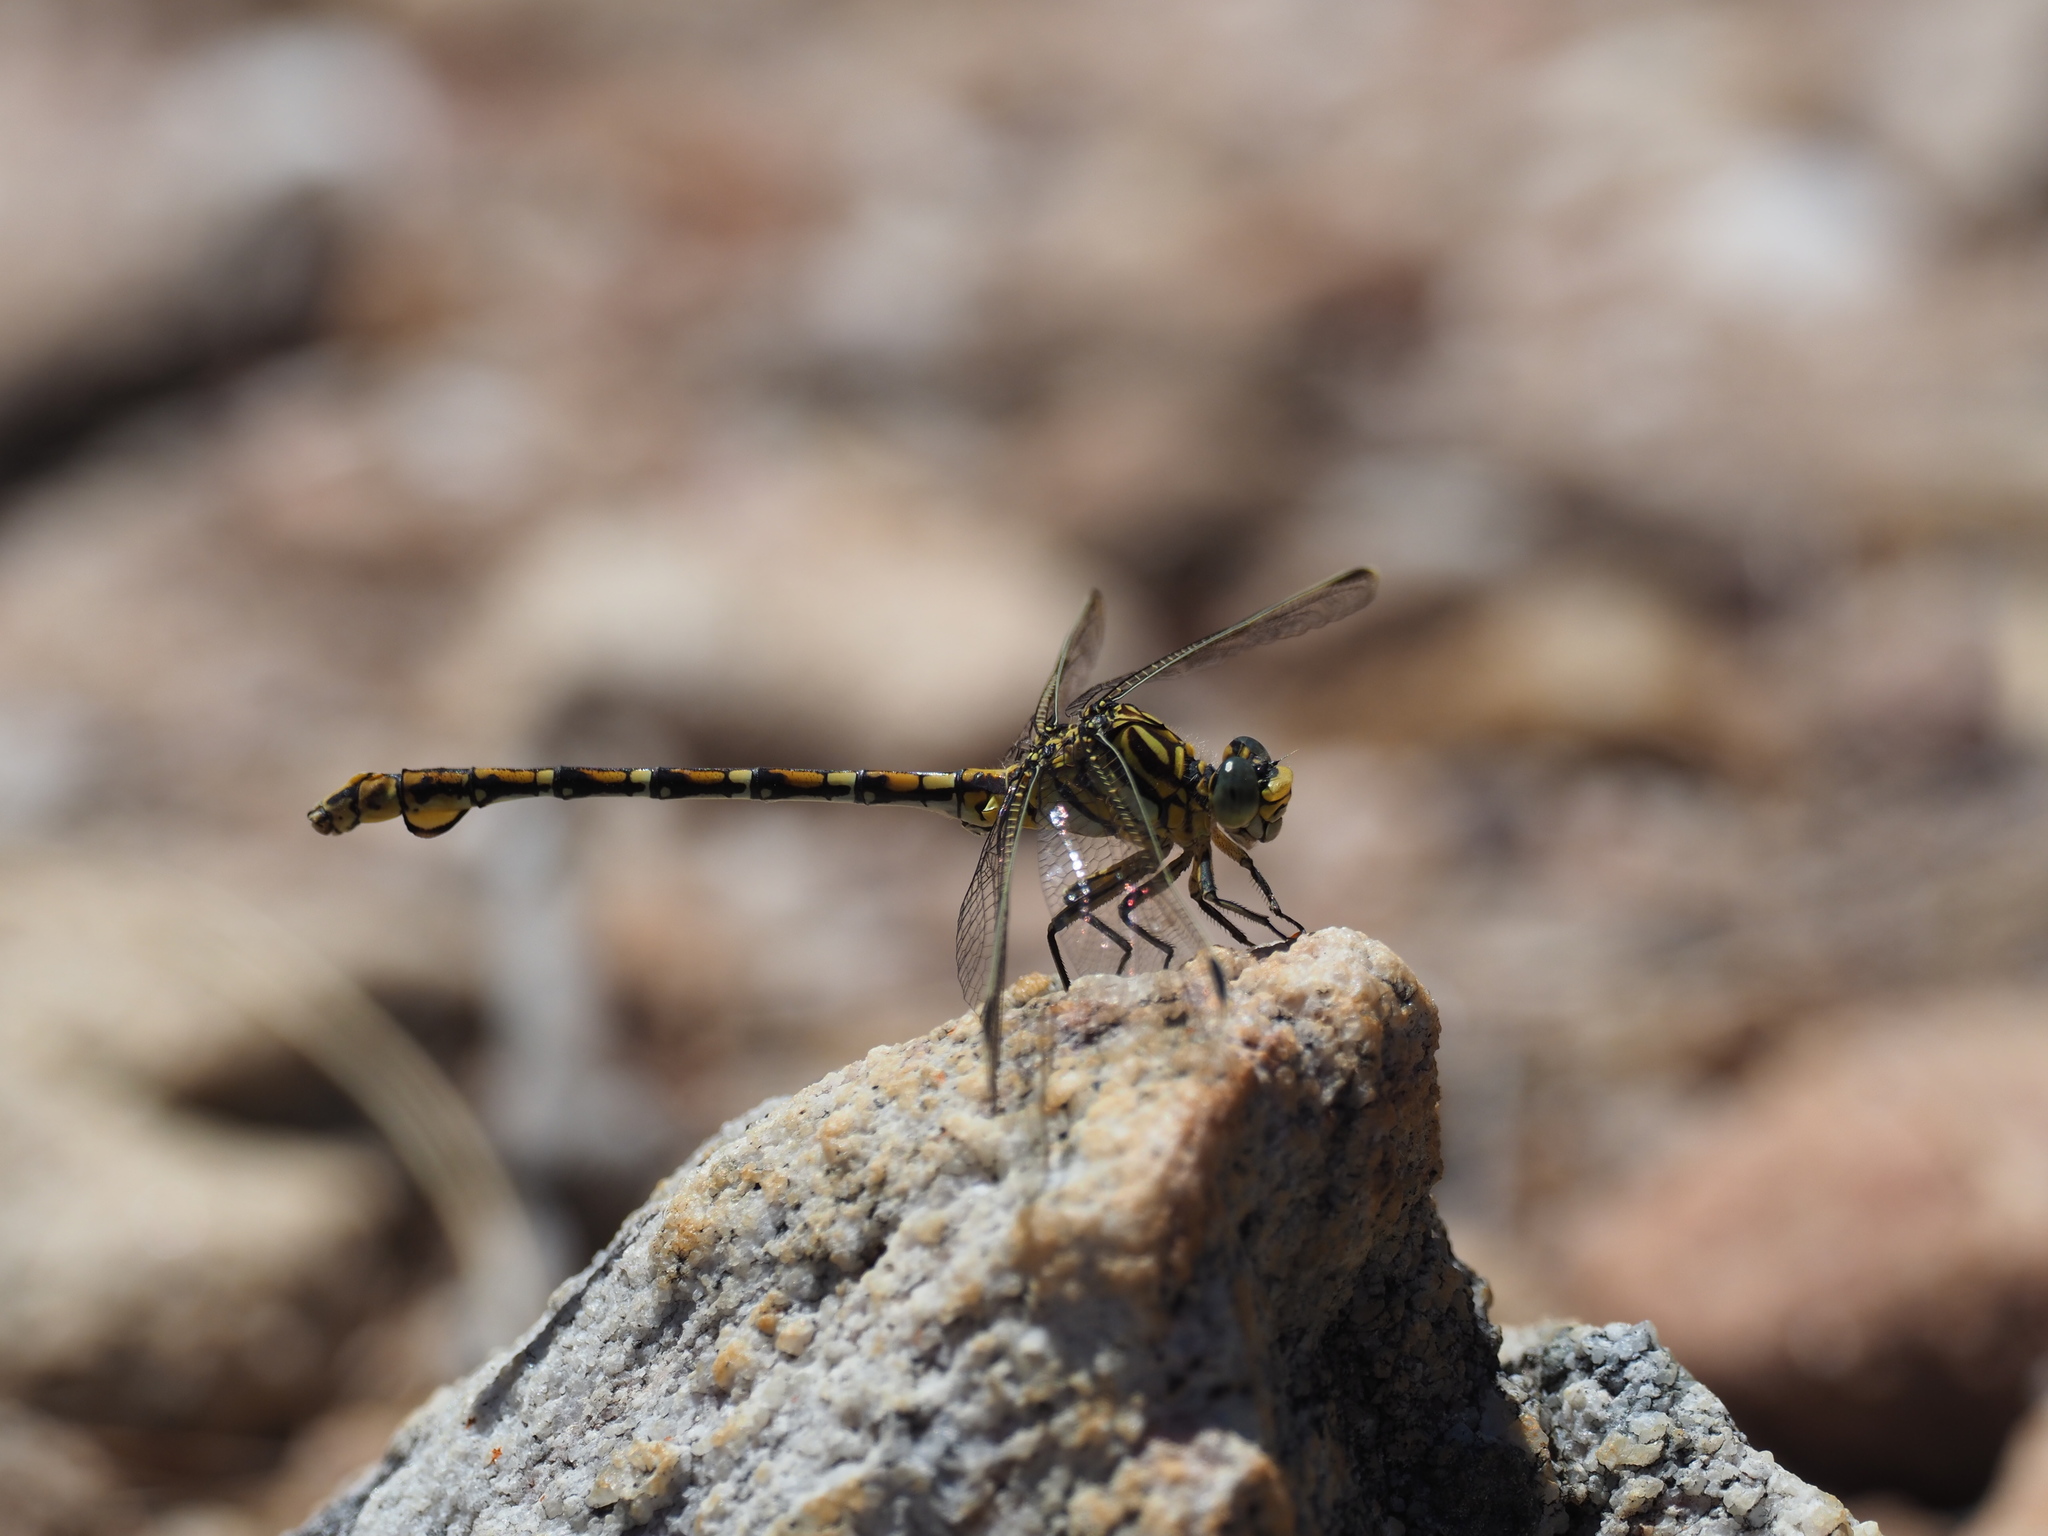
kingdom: Animalia
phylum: Arthropoda
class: Insecta
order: Odonata
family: Gomphidae
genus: Ceratogomphus
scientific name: Ceratogomphus pictus
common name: Common thorntail
